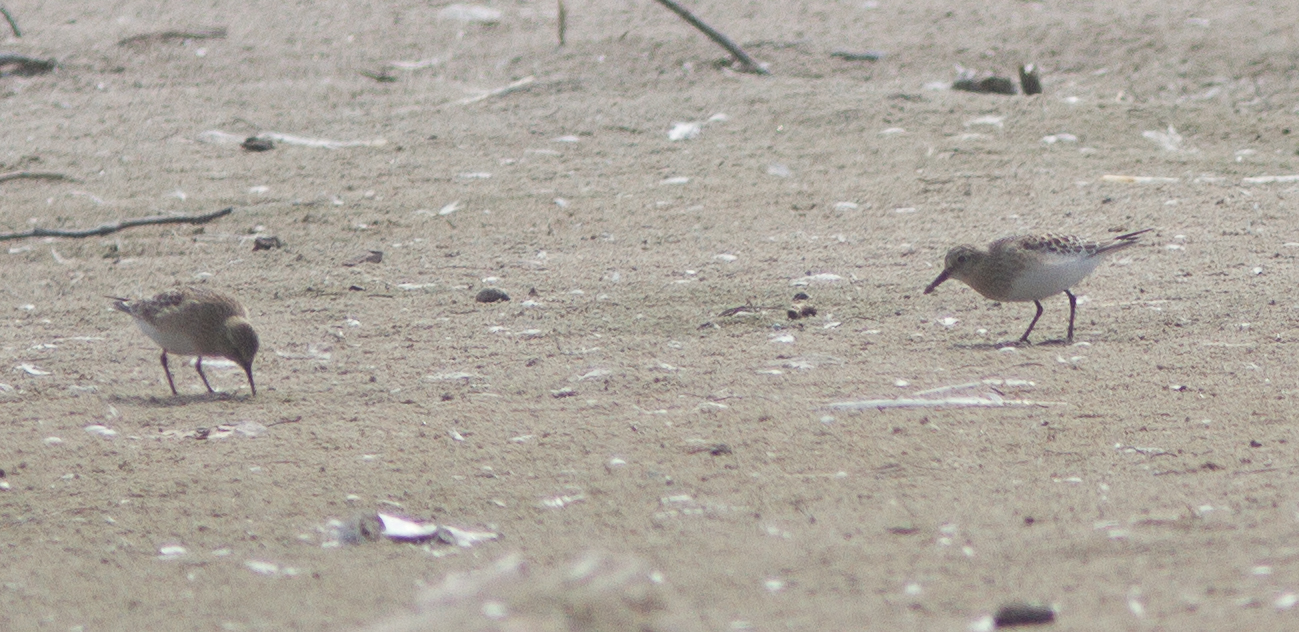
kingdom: Animalia
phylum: Chordata
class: Aves
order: Charadriiformes
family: Scolopacidae
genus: Calidris
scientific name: Calidris bairdii
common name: Baird's sandpiper
